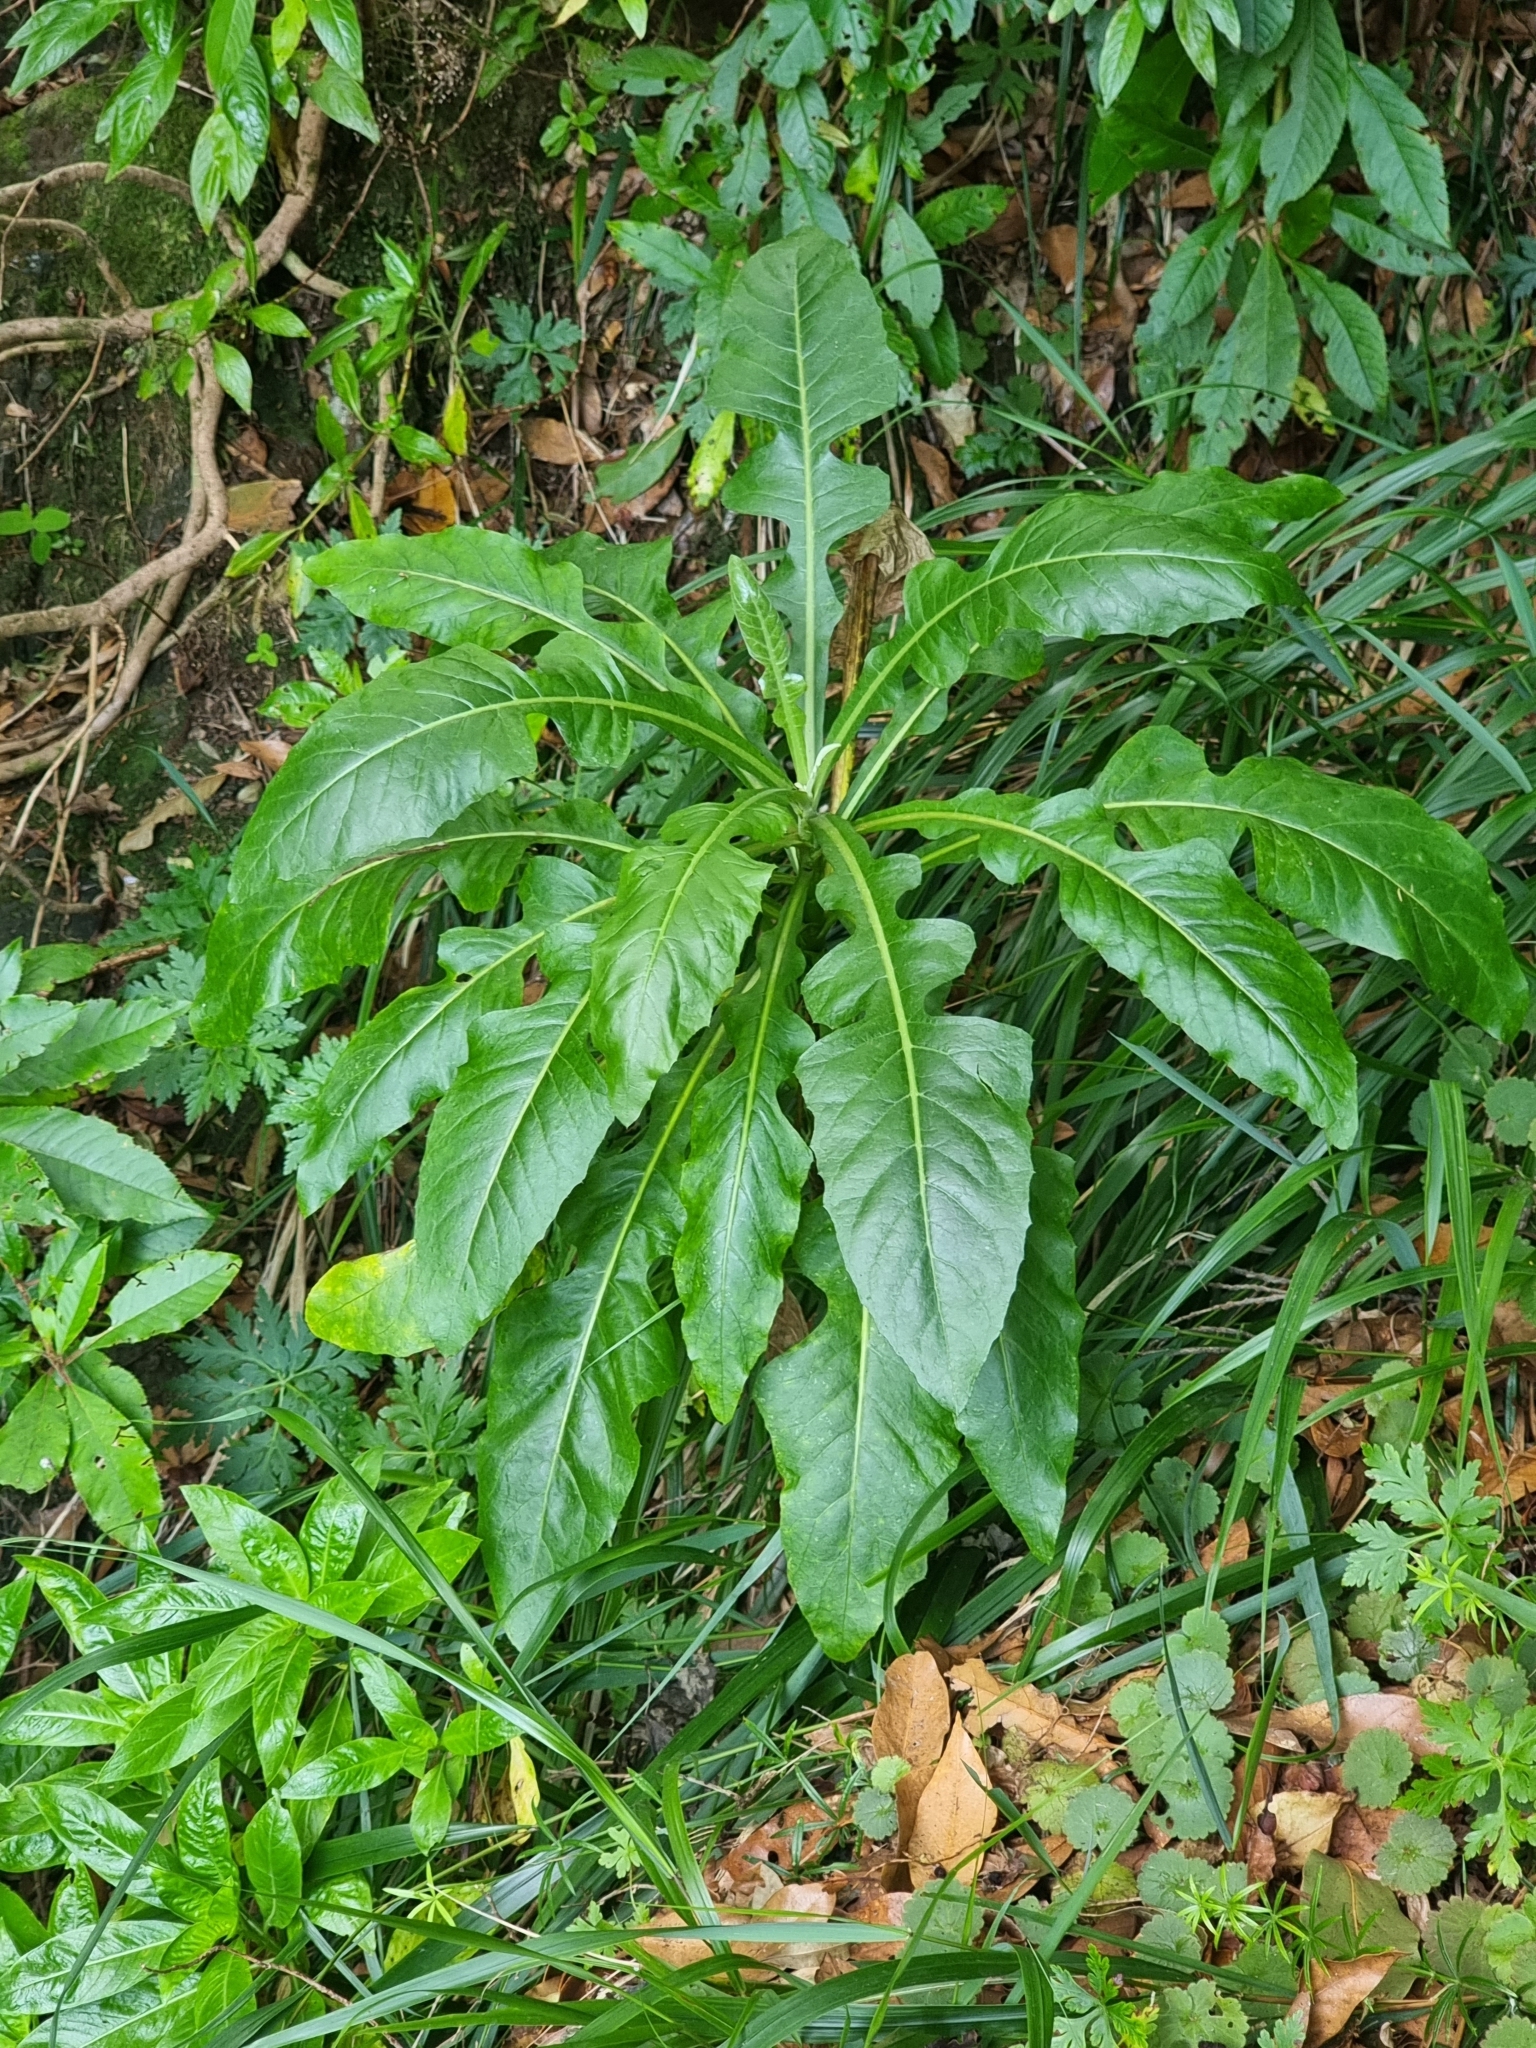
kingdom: Plantae
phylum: Tracheophyta
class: Magnoliopsida
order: Asterales
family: Asteraceae
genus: Sonchus
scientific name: Sonchus fruticosus
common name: Shrubby sow-thistle
